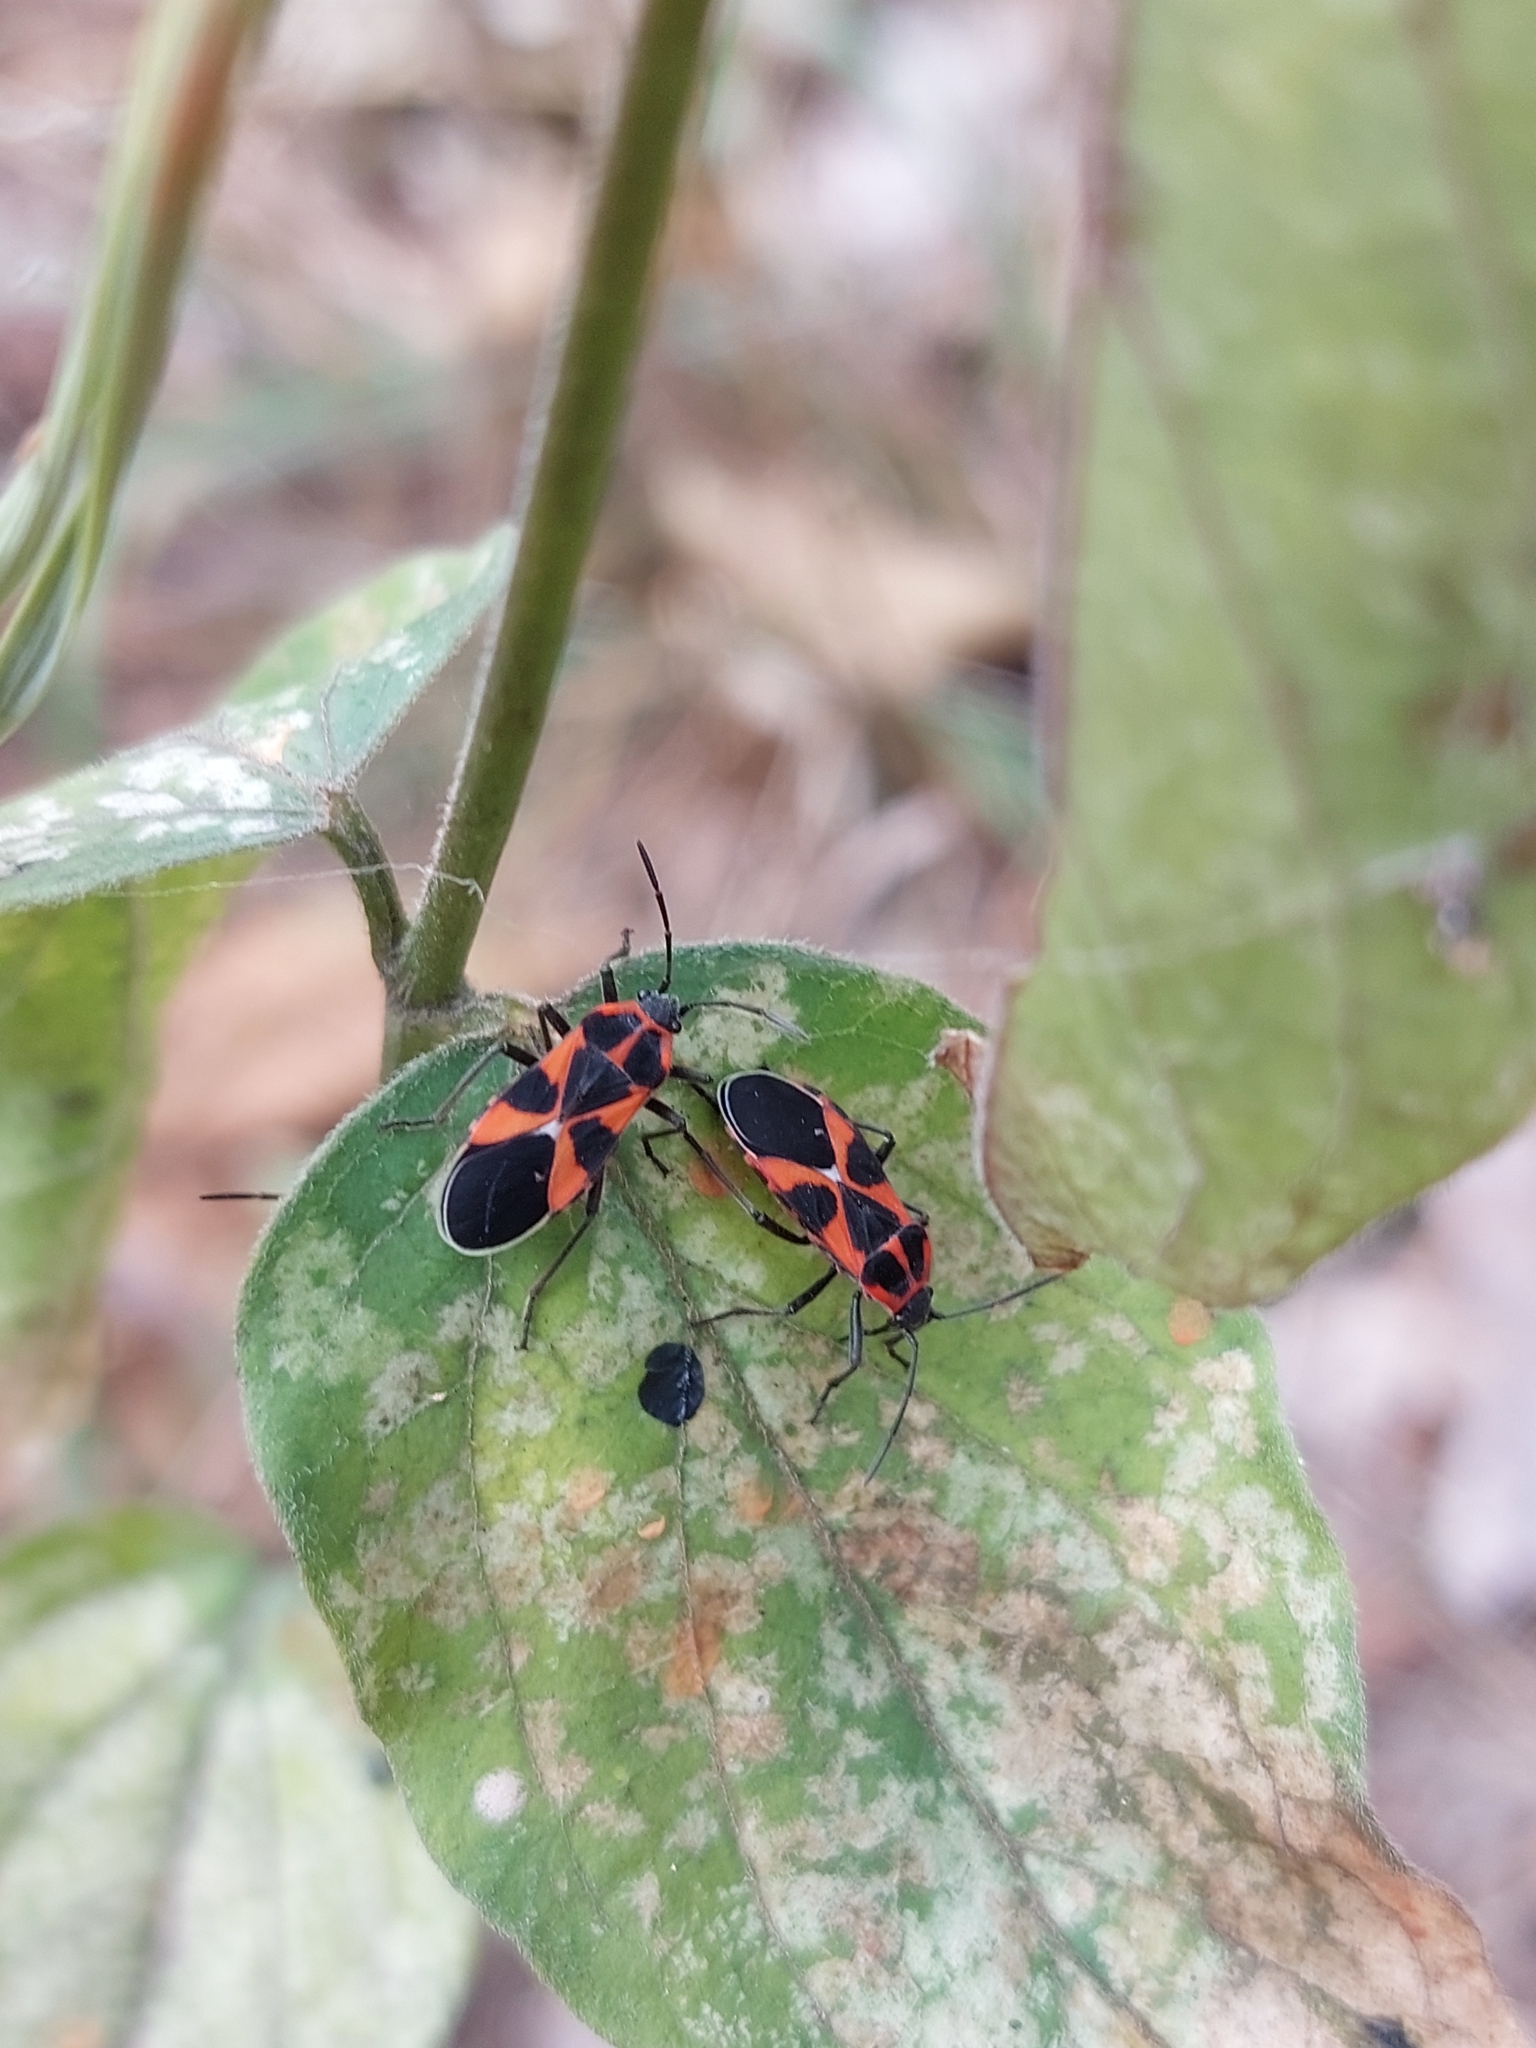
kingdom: Animalia
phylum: Arthropoda
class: Insecta
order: Hemiptera
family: Lygaeidae
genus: Tropidothorax
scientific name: Tropidothorax leucopterus
